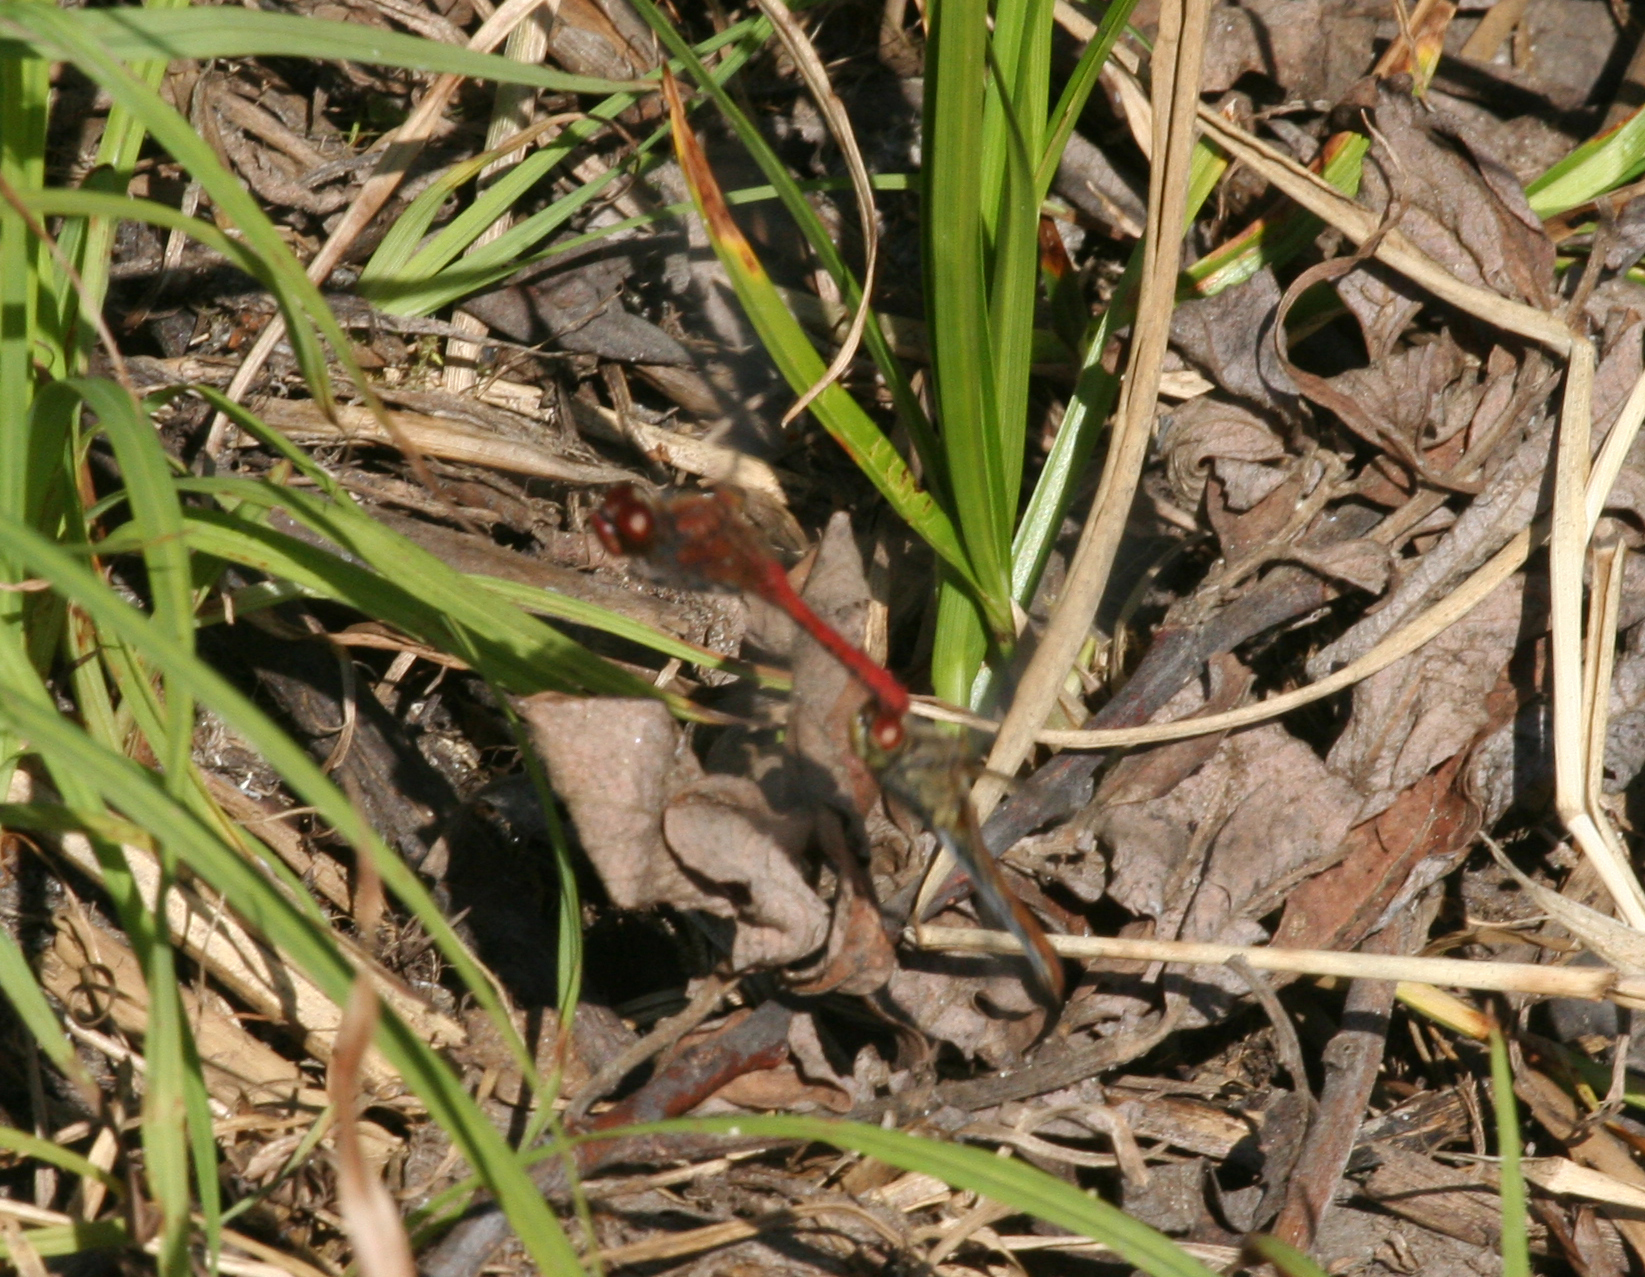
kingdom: Animalia
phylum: Arthropoda
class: Insecta
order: Odonata
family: Libellulidae
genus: Sympetrum
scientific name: Sympetrum sanguineum
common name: Ruddy darter
